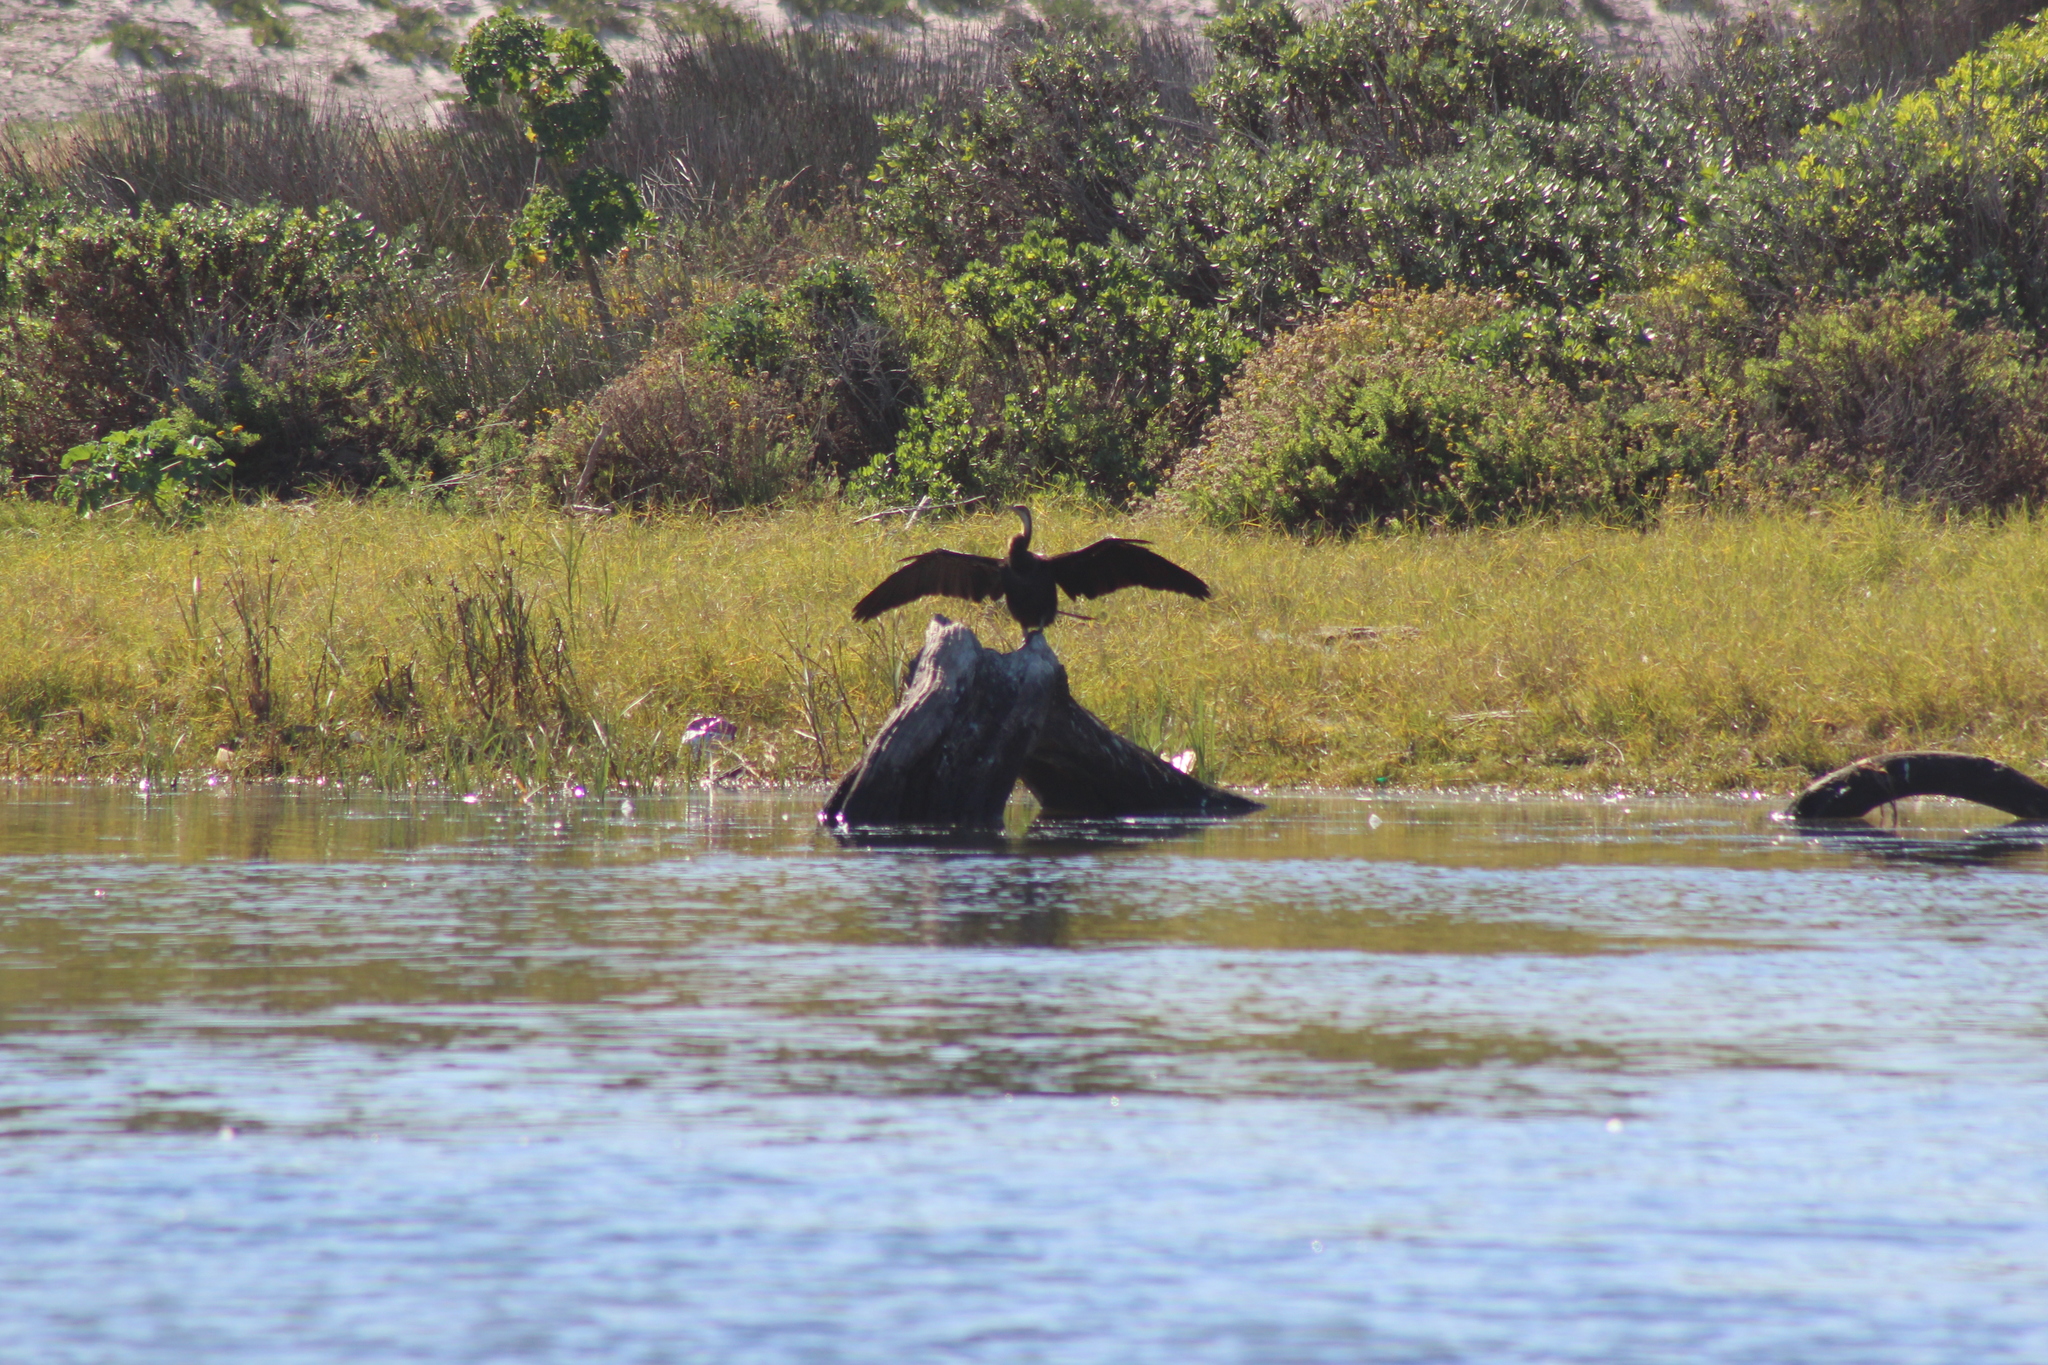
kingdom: Animalia
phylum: Chordata
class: Aves
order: Suliformes
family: Anhingidae
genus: Anhinga
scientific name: Anhinga rufa
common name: African darter
